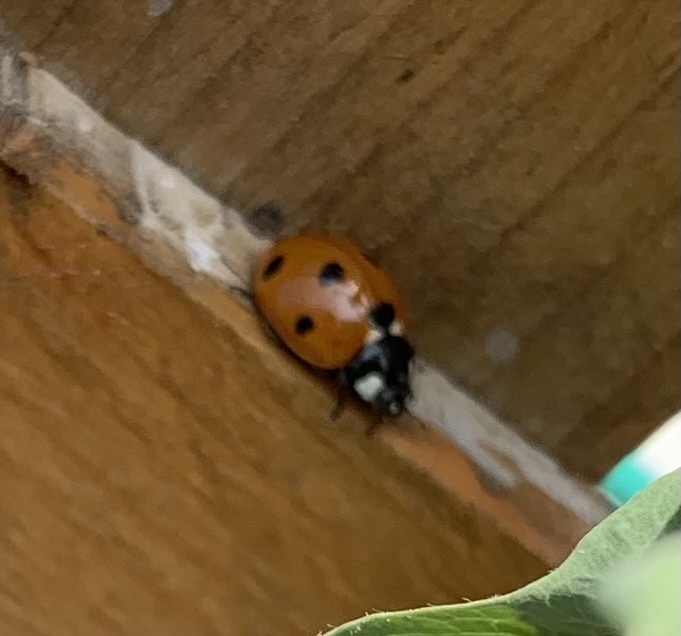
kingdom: Animalia
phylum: Arthropoda
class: Insecta
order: Coleoptera
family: Coccinellidae
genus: Coccinella
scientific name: Coccinella septempunctata
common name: Sevenspotted lady beetle
